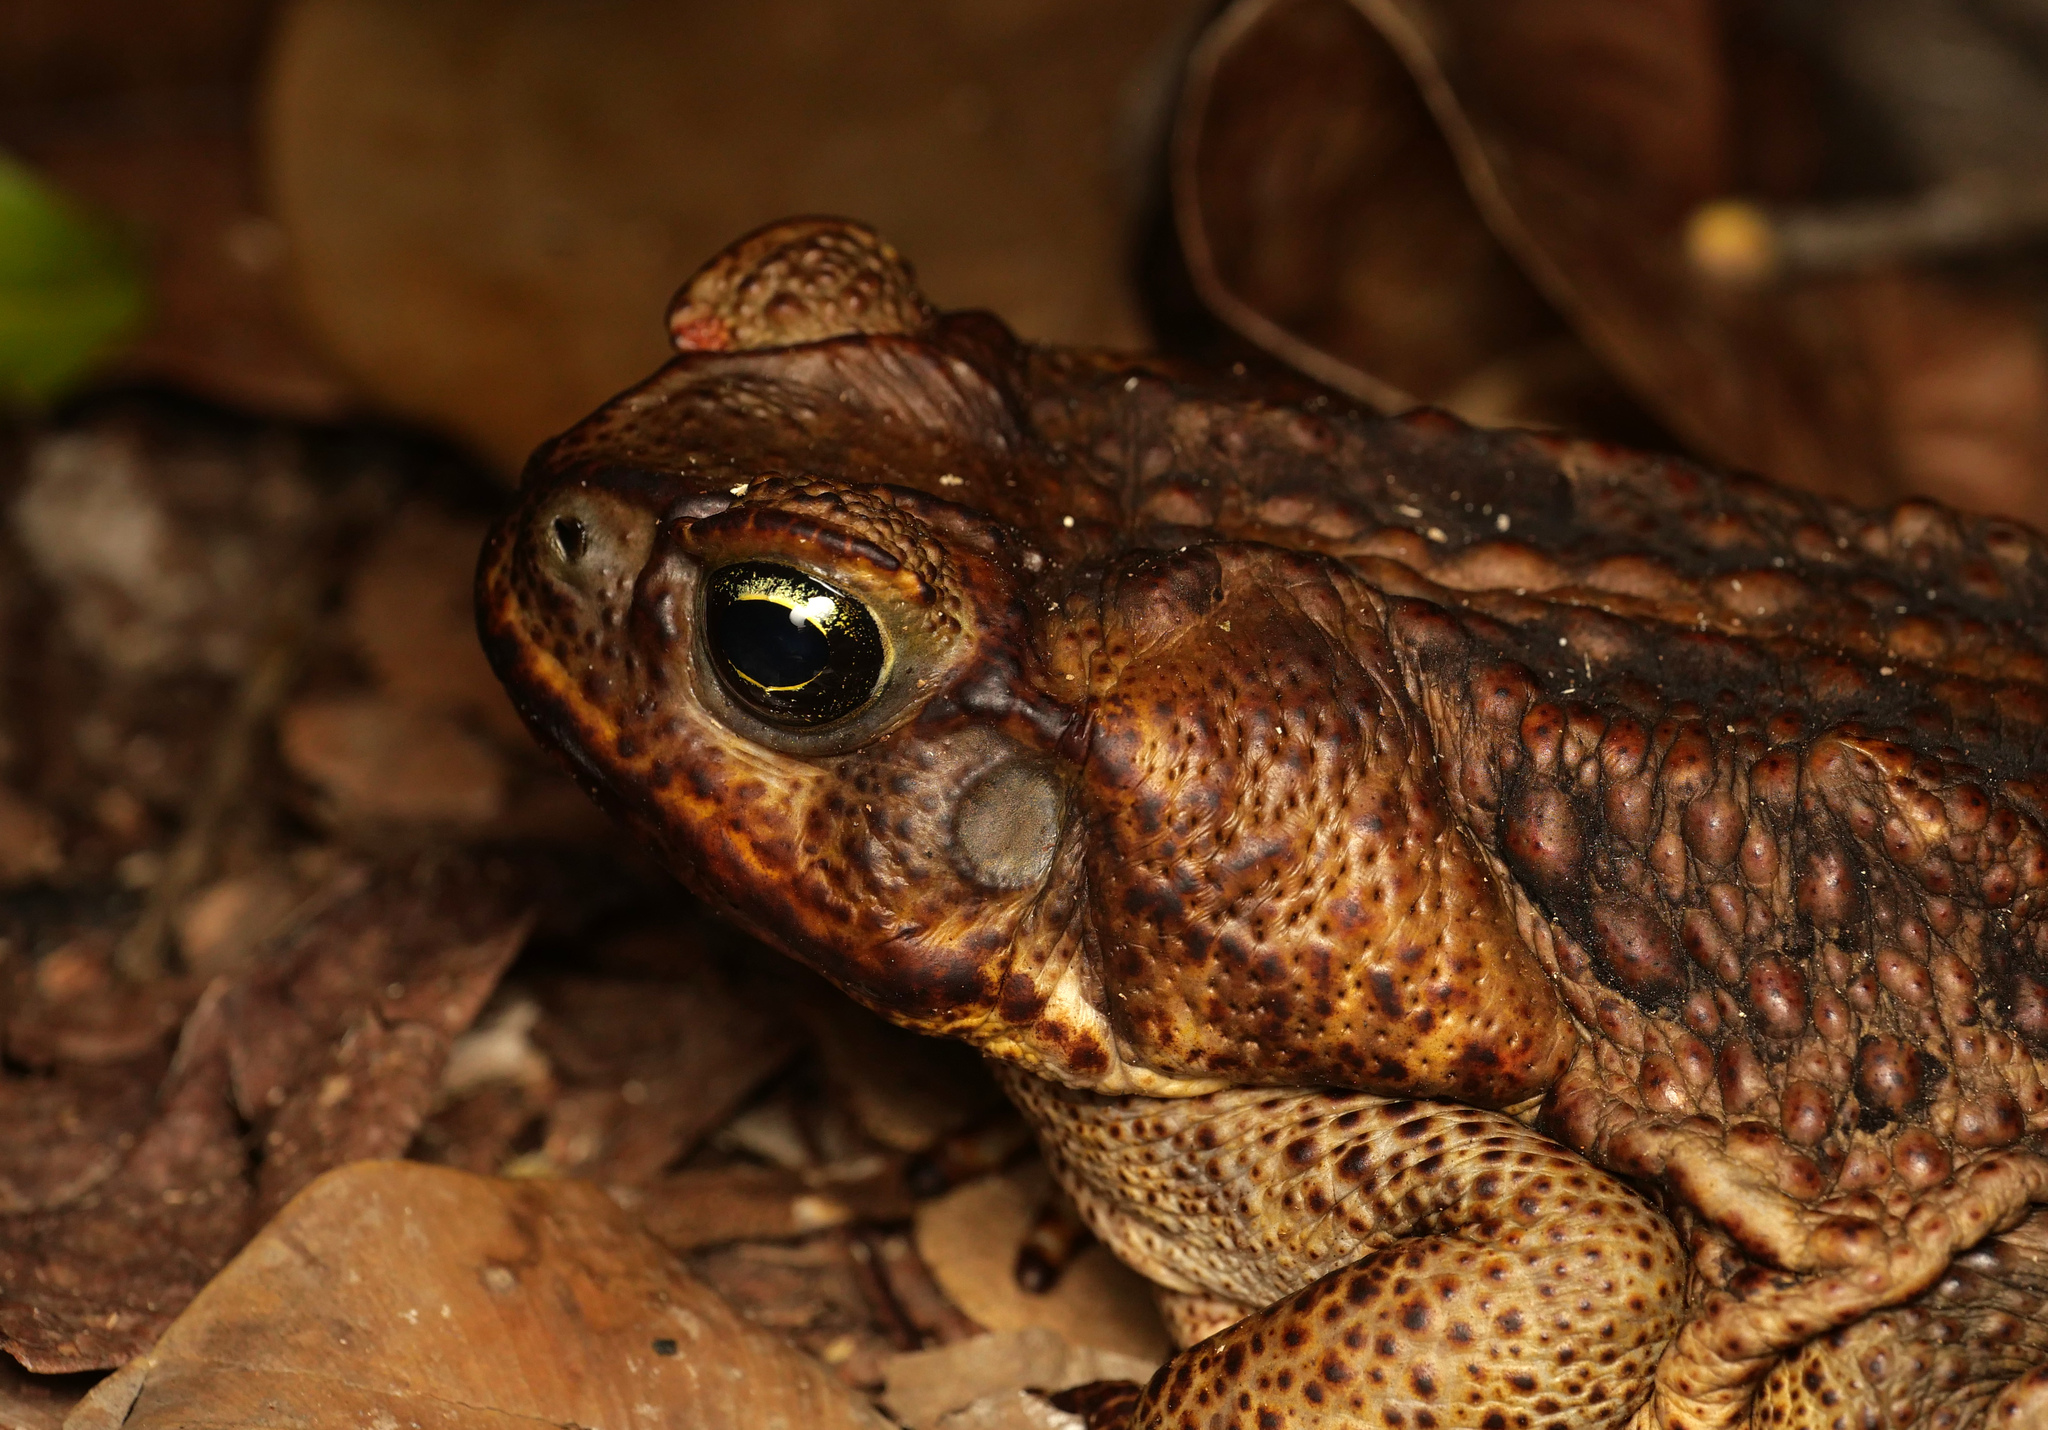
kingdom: Animalia
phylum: Chordata
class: Amphibia
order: Anura
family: Bufonidae
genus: Rhinella
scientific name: Rhinella marina
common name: Cane toad
